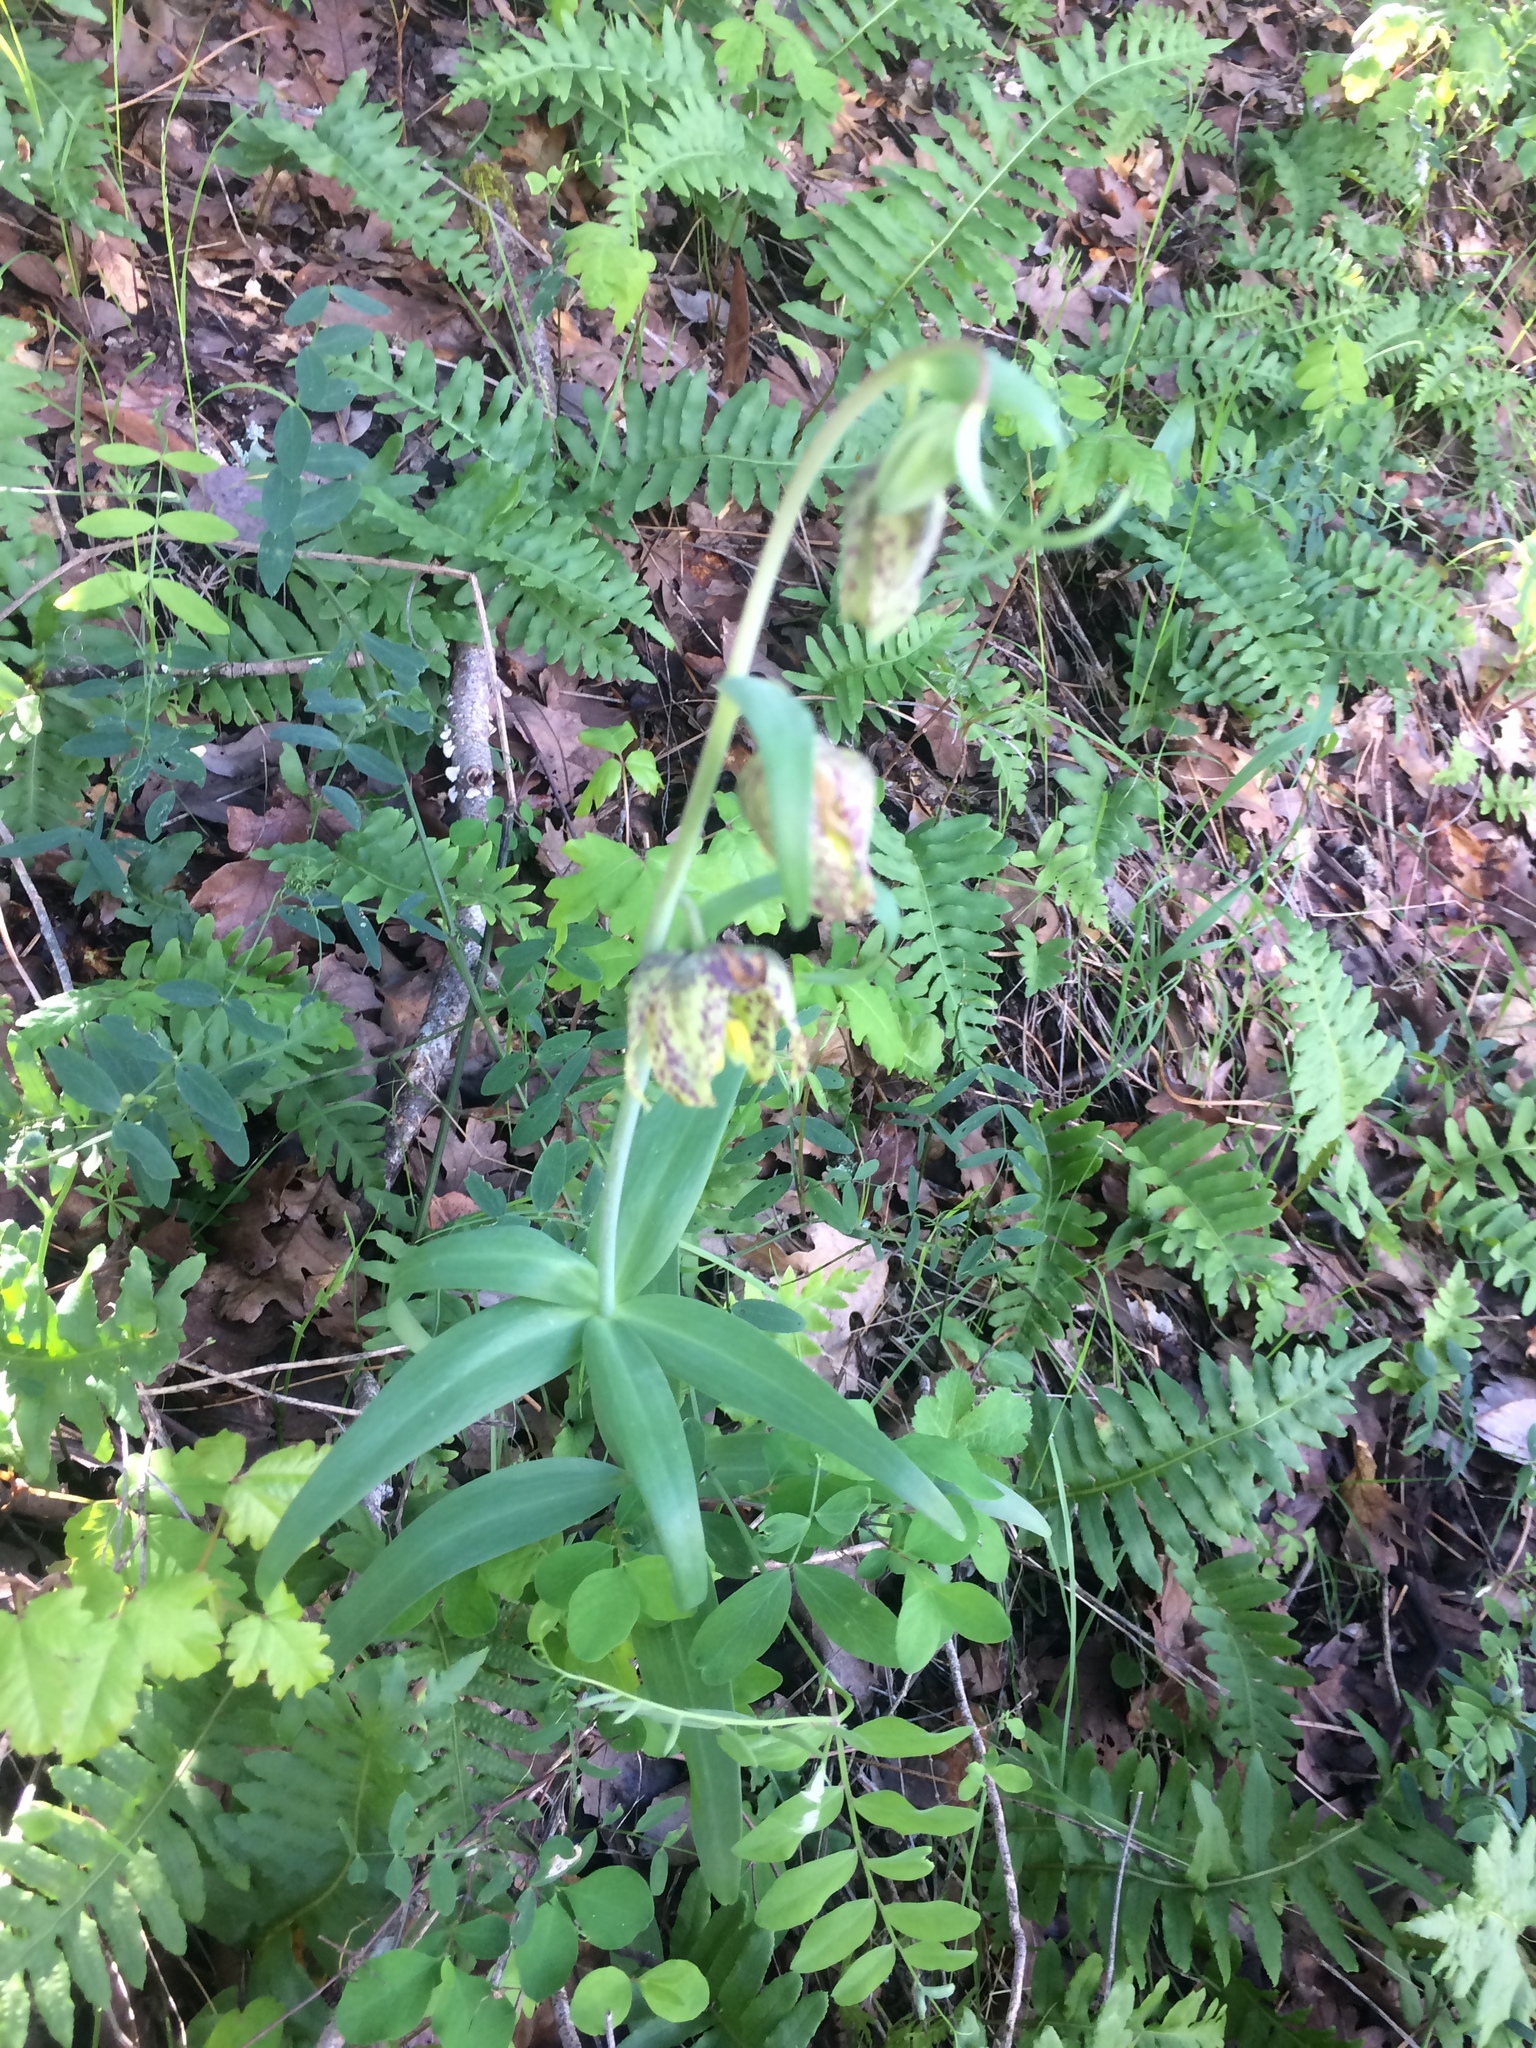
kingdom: Plantae
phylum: Tracheophyta
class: Liliopsida
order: Liliales
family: Liliaceae
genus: Fritillaria
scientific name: Fritillaria affinis
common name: Ojai fritillary
